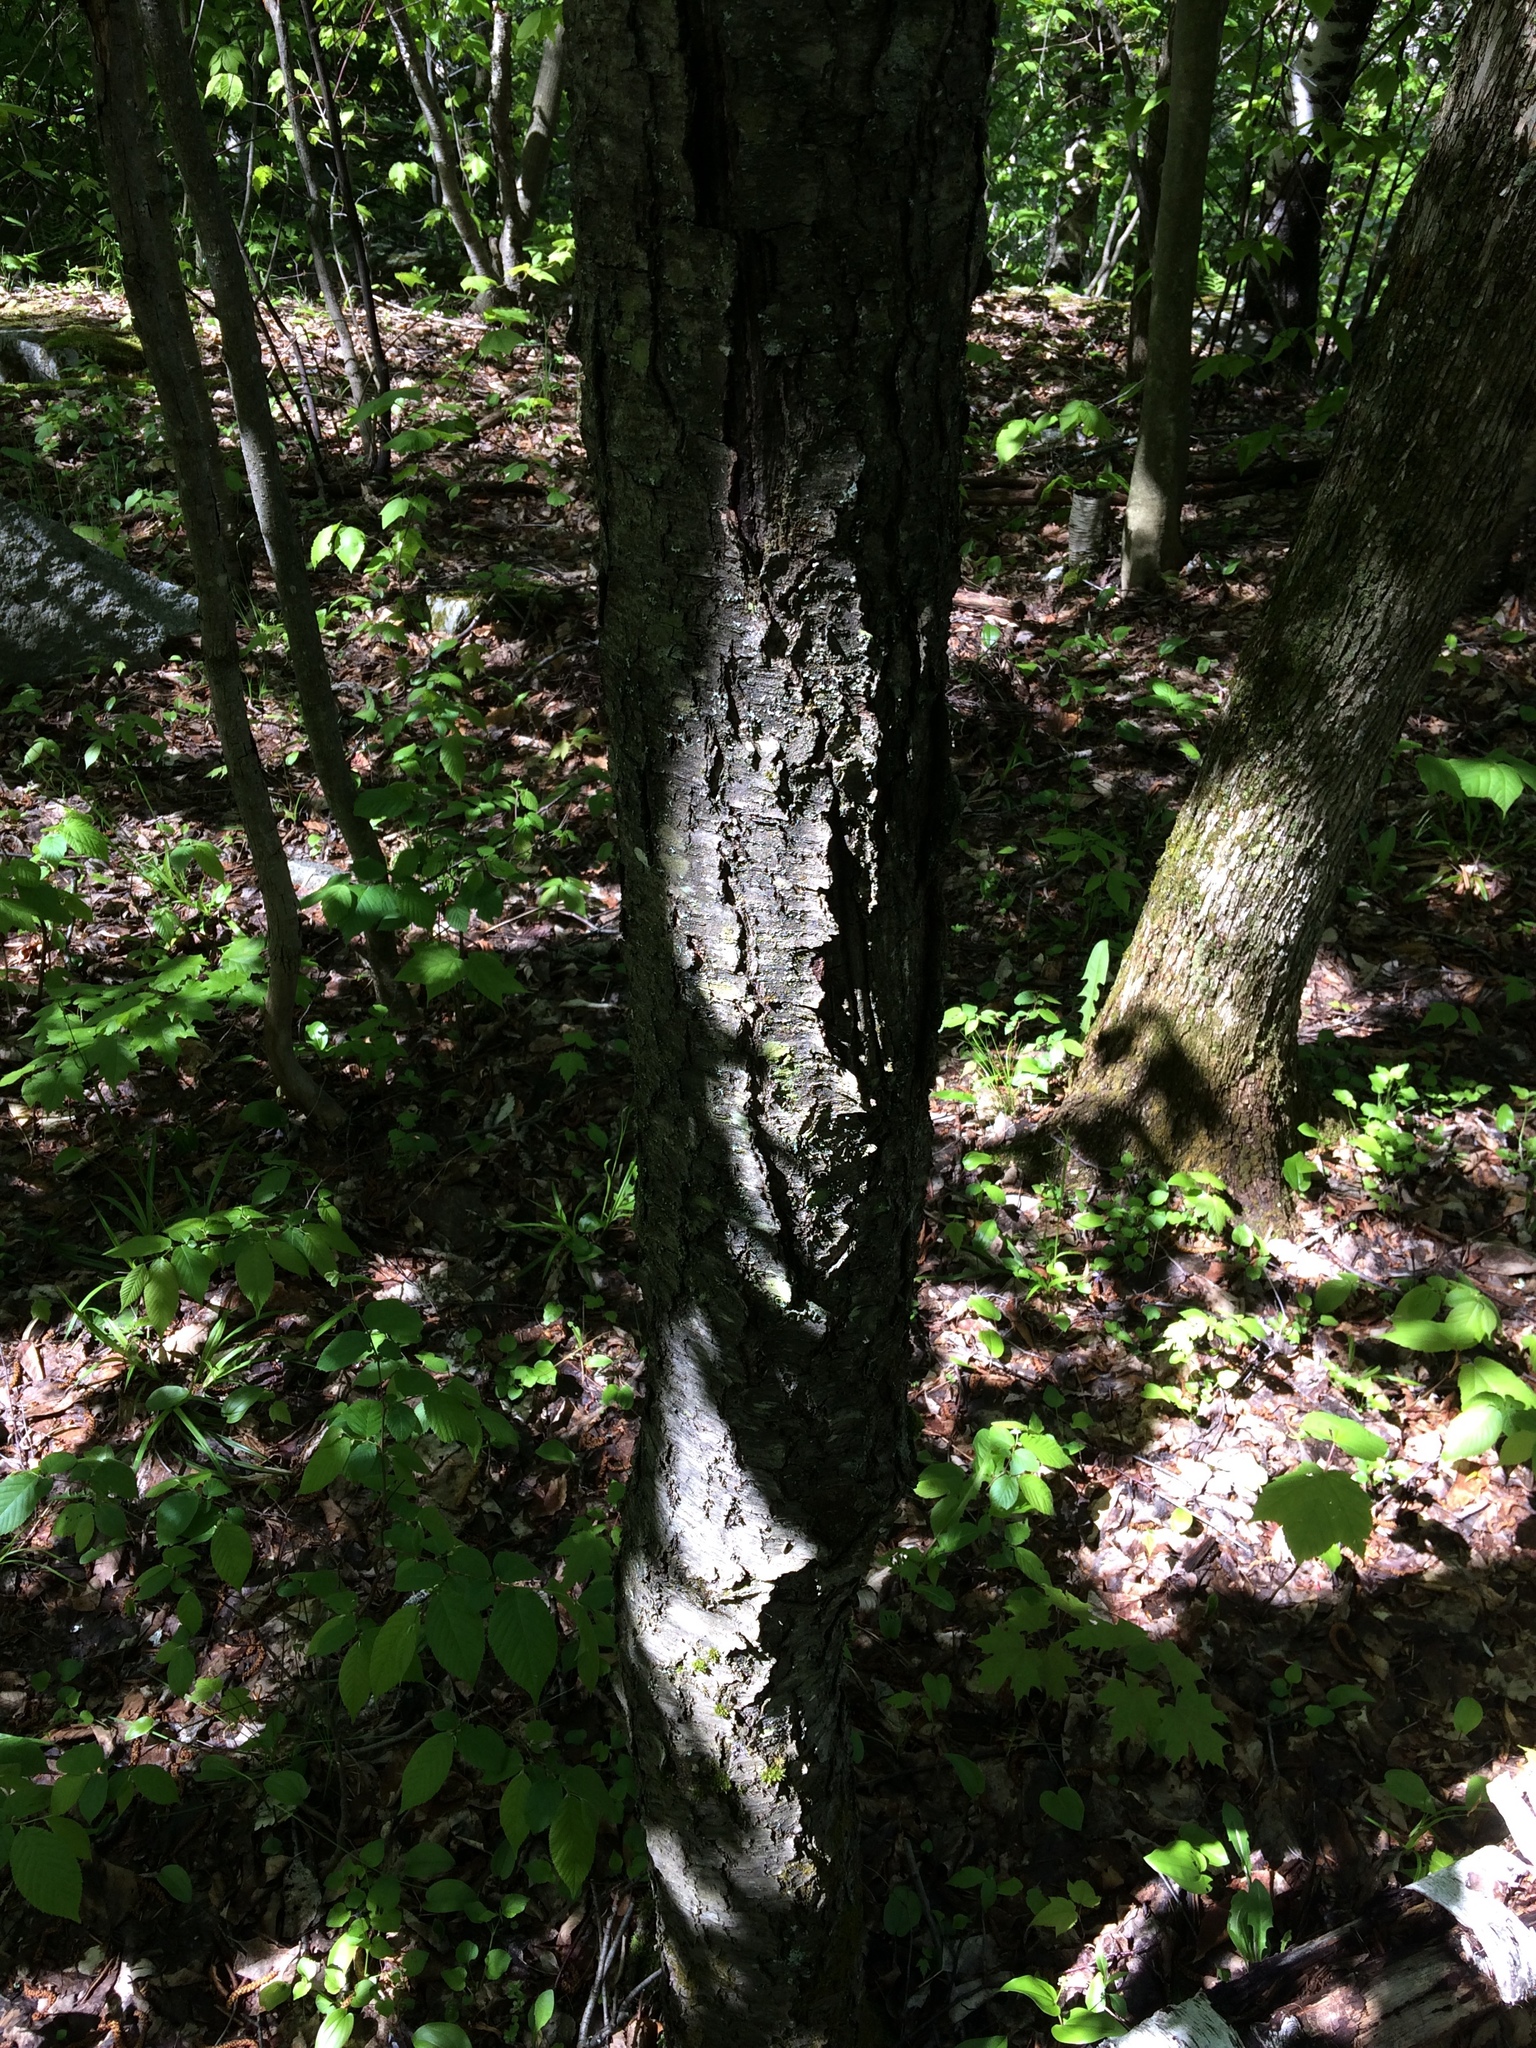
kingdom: Plantae
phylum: Tracheophyta
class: Magnoliopsida
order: Rosales
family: Rosaceae
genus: Prunus
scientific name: Prunus serotina
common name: Black cherry
